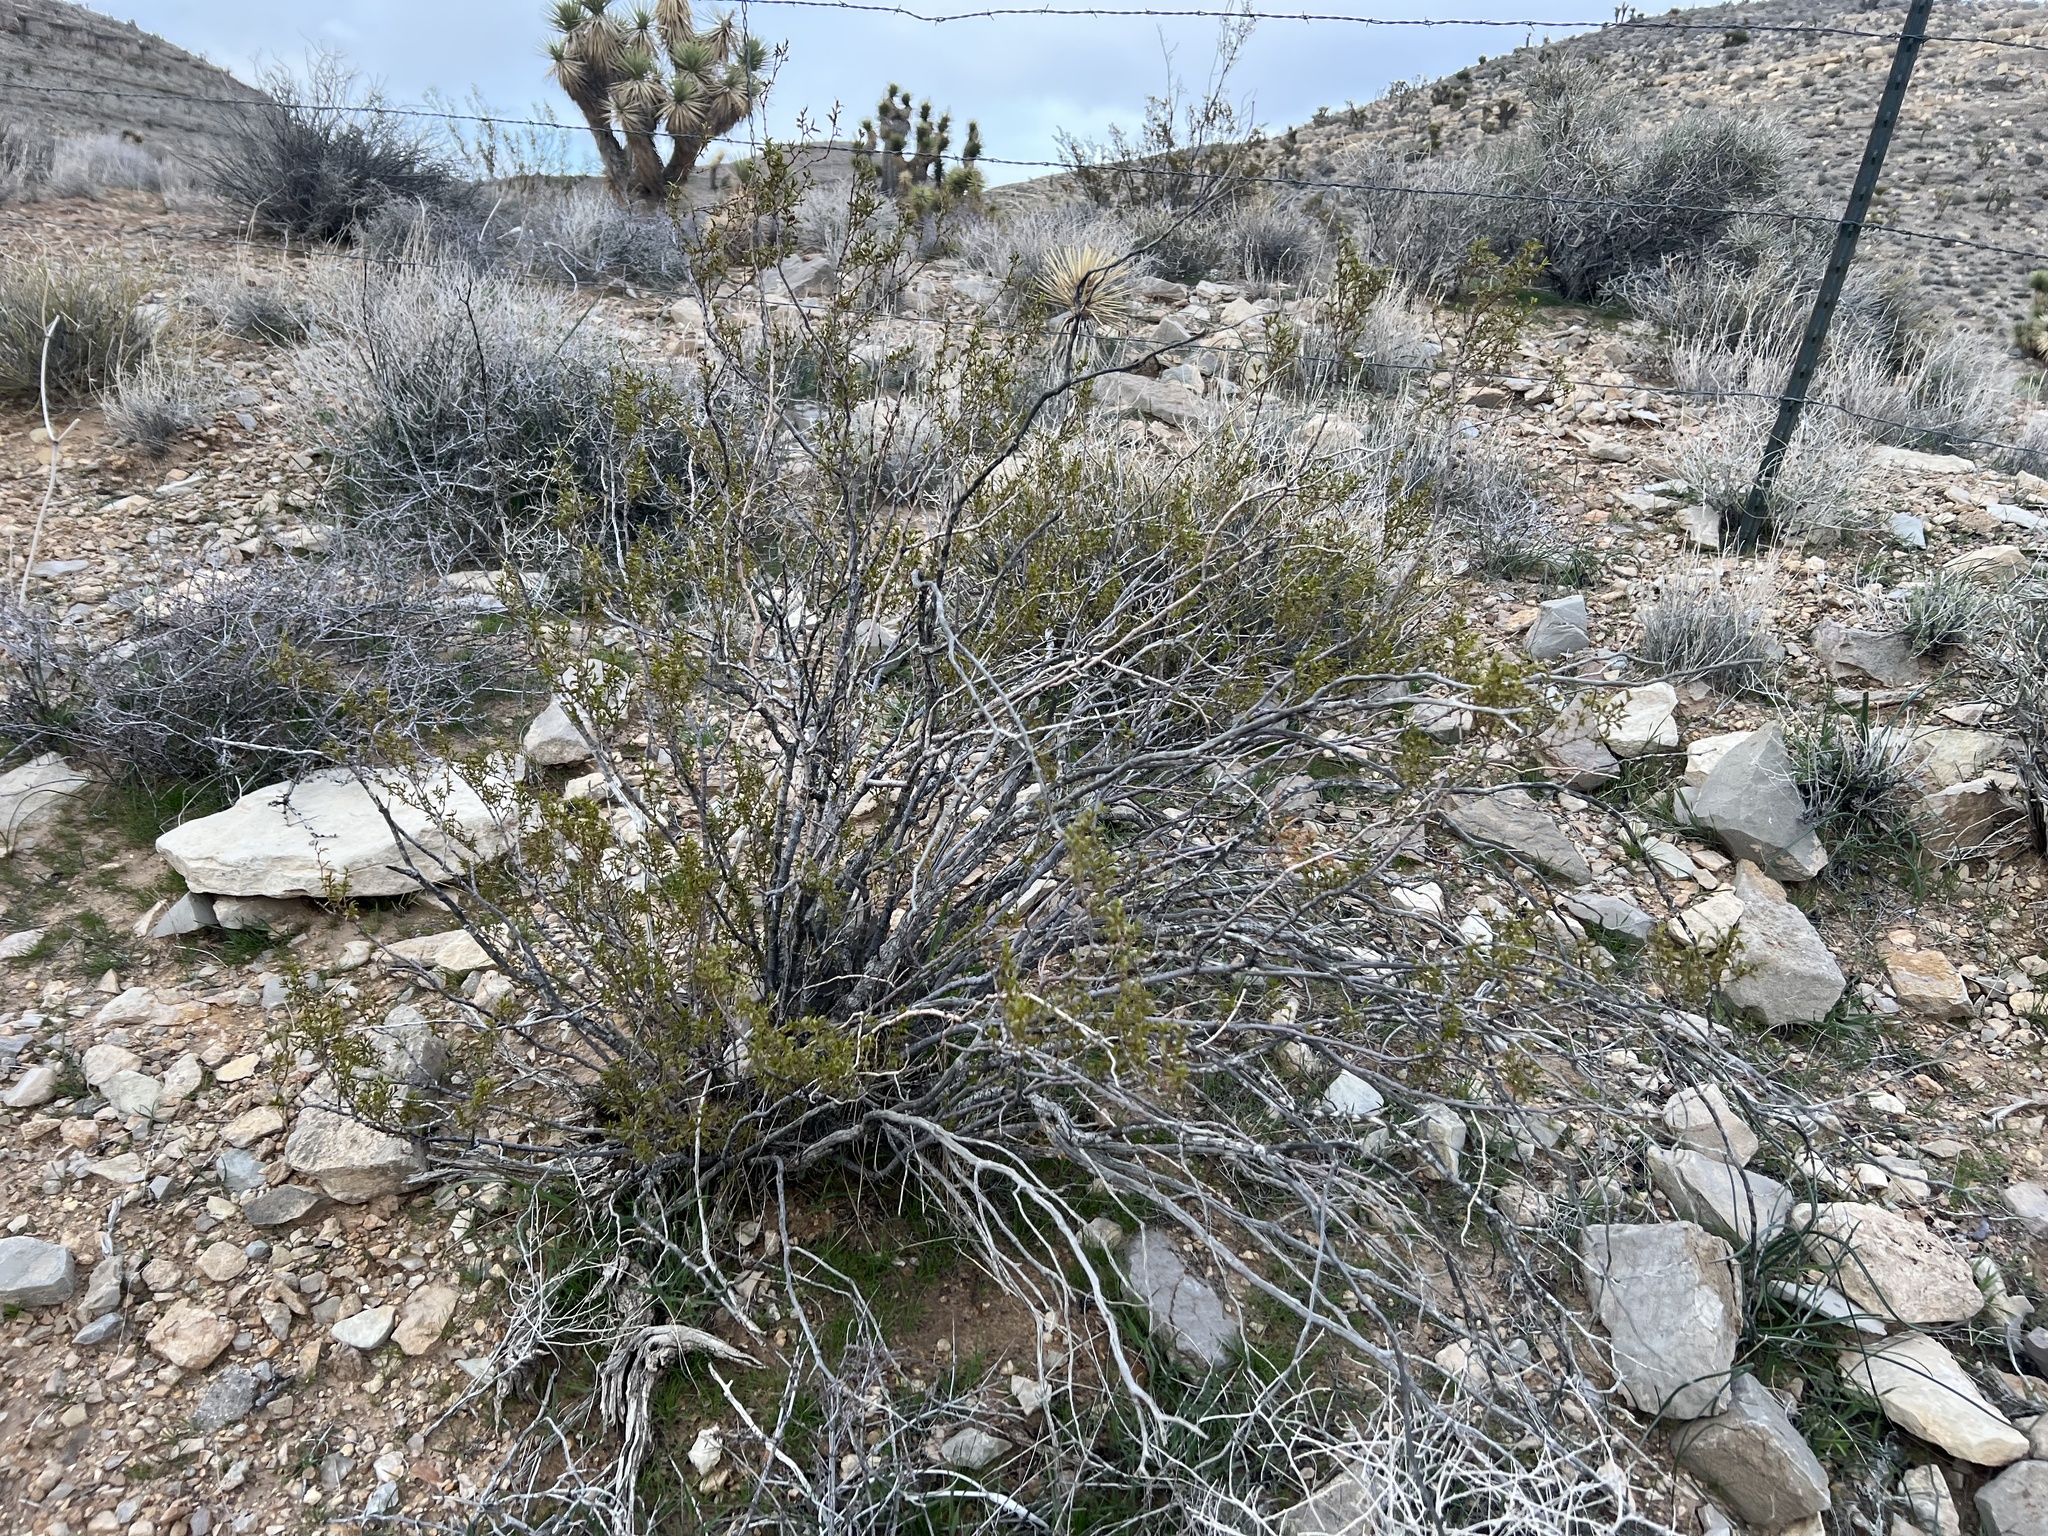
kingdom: Plantae
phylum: Tracheophyta
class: Magnoliopsida
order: Zygophyllales
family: Zygophyllaceae
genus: Larrea
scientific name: Larrea tridentata
